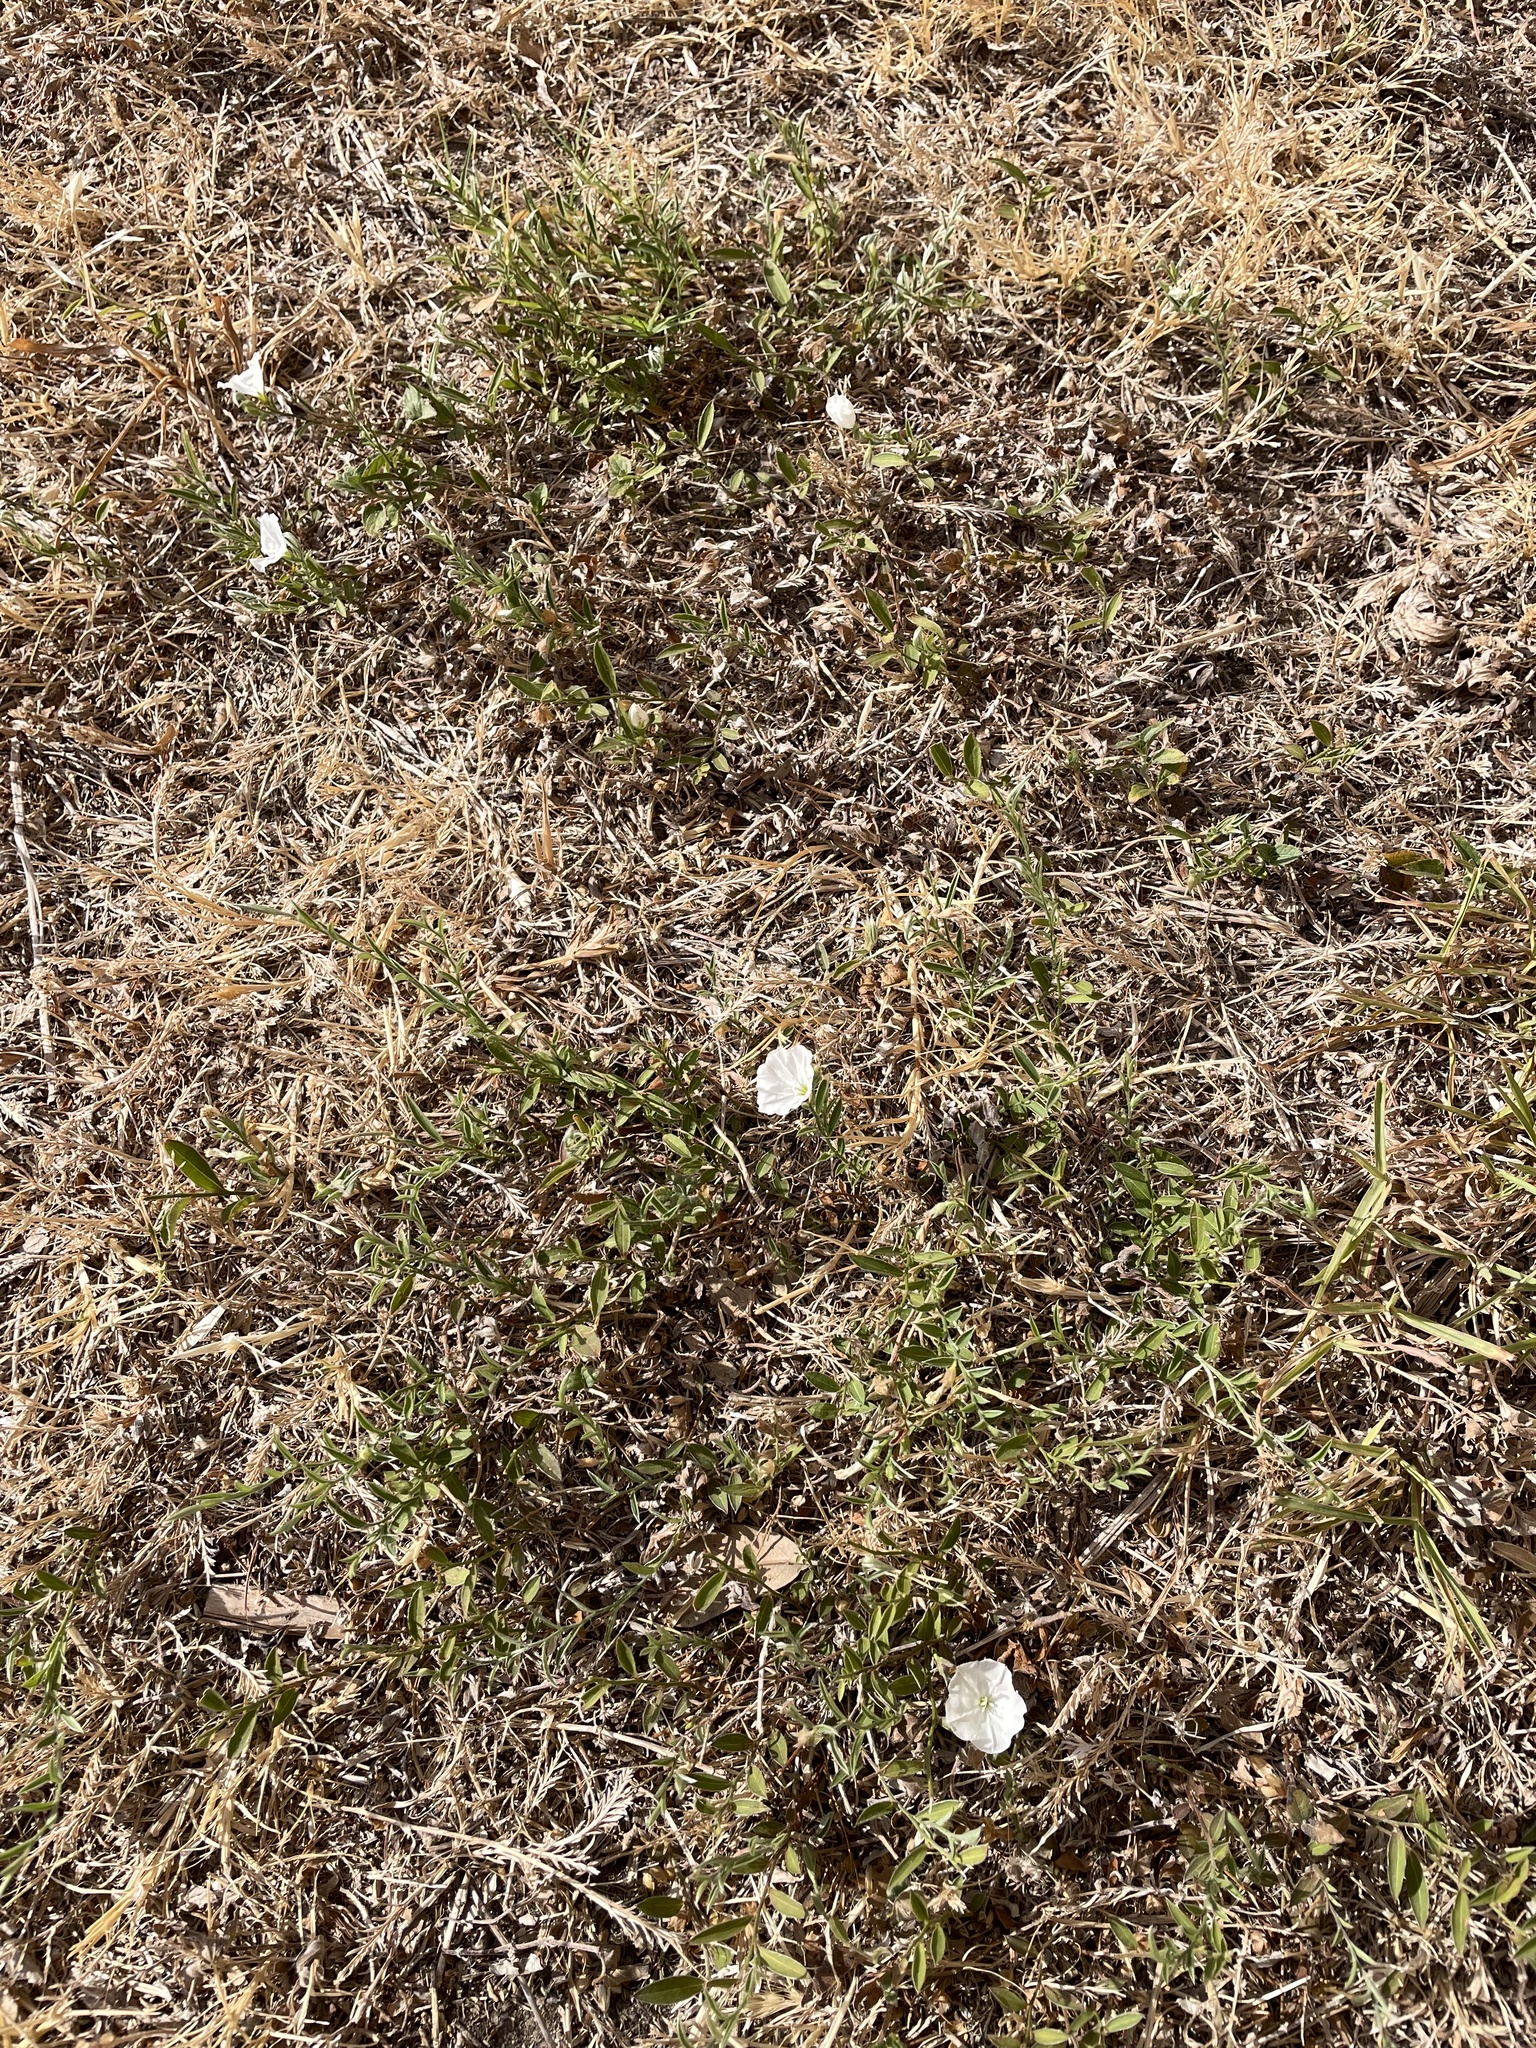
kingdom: Plantae
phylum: Tracheophyta
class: Magnoliopsida
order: Solanales
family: Convolvulaceae
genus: Evolvulus
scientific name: Evolvulus sericeus
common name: Blue dots
